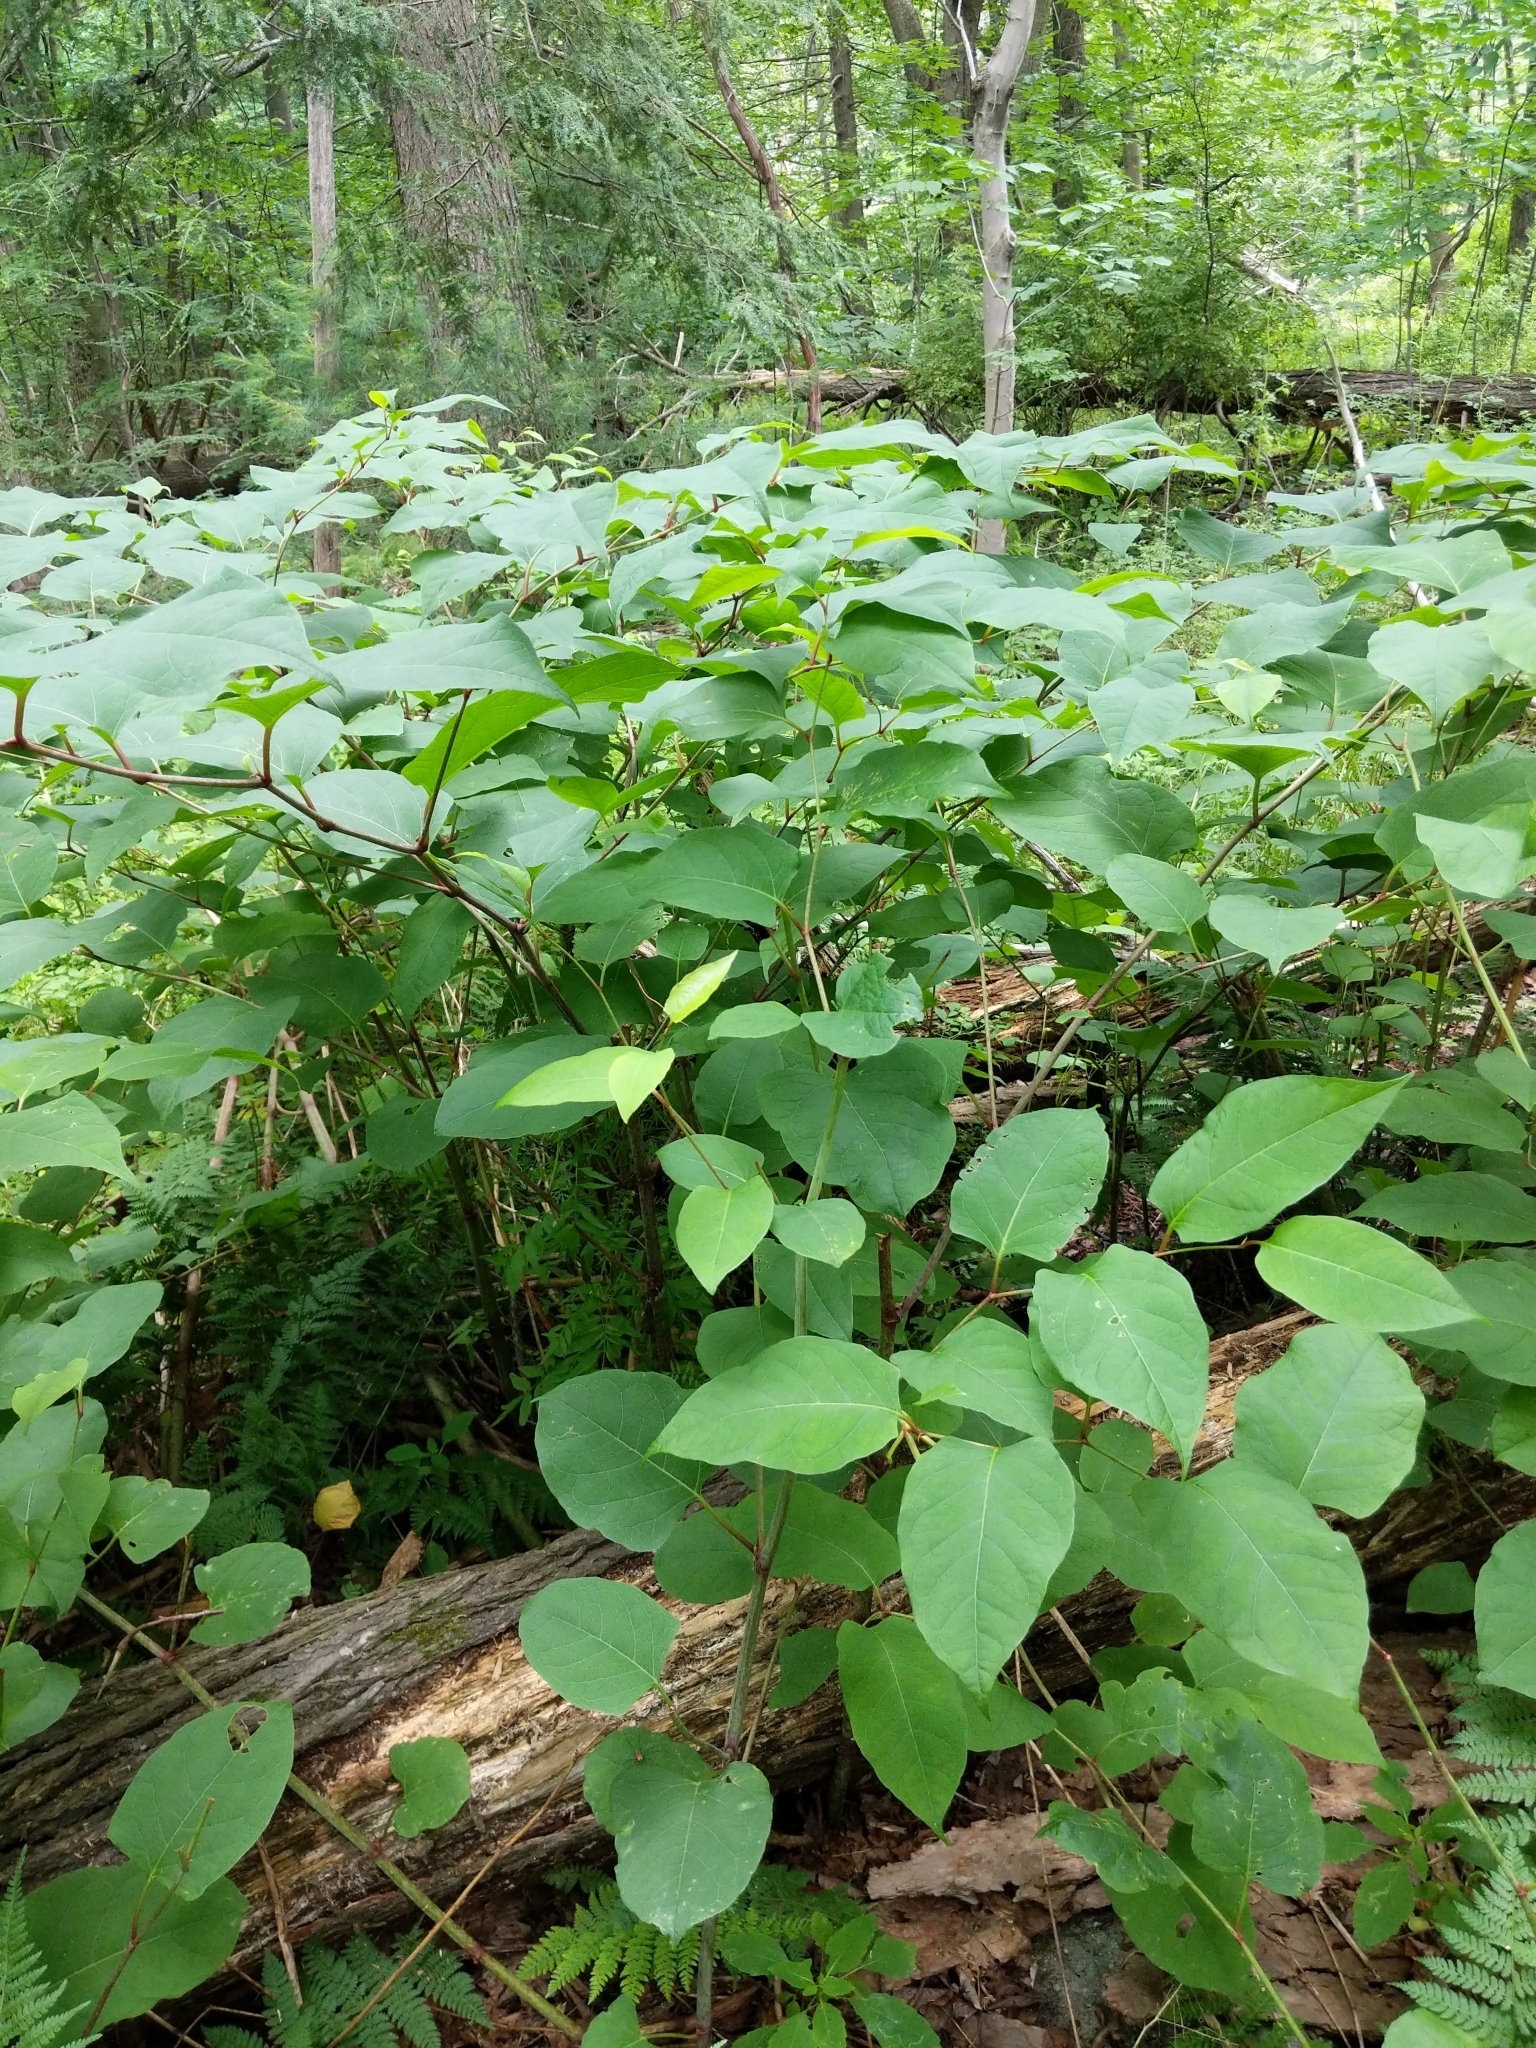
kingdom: Plantae
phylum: Tracheophyta
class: Magnoliopsida
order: Caryophyllales
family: Polygonaceae
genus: Reynoutria
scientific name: Reynoutria japonica
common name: Japanese knotweed
